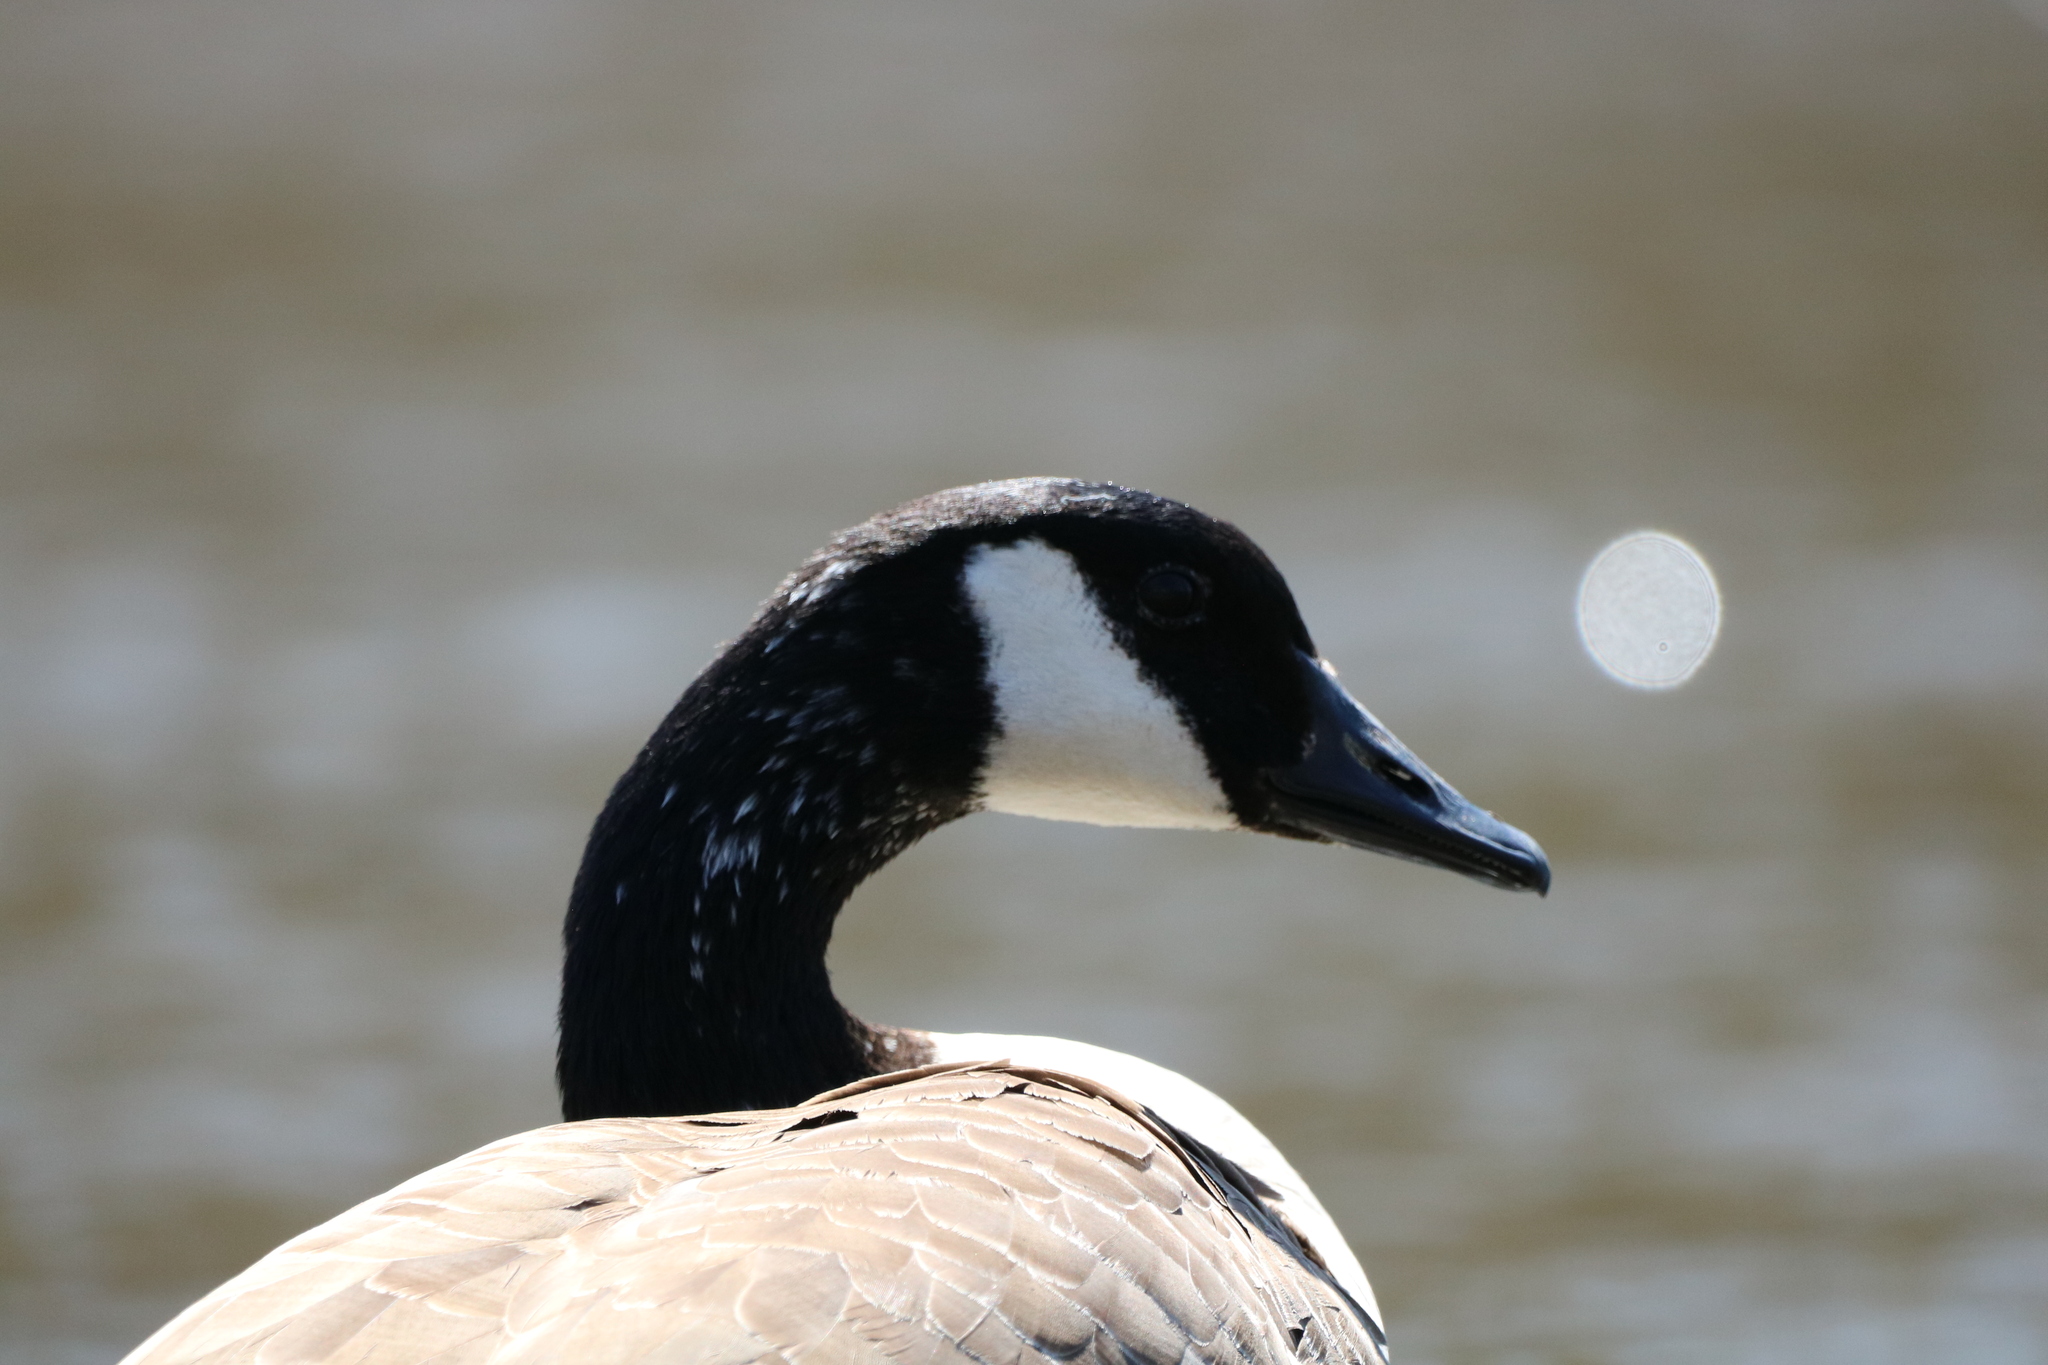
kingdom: Animalia
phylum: Chordata
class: Aves
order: Anseriformes
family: Anatidae
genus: Branta
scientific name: Branta canadensis
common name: Canada goose
